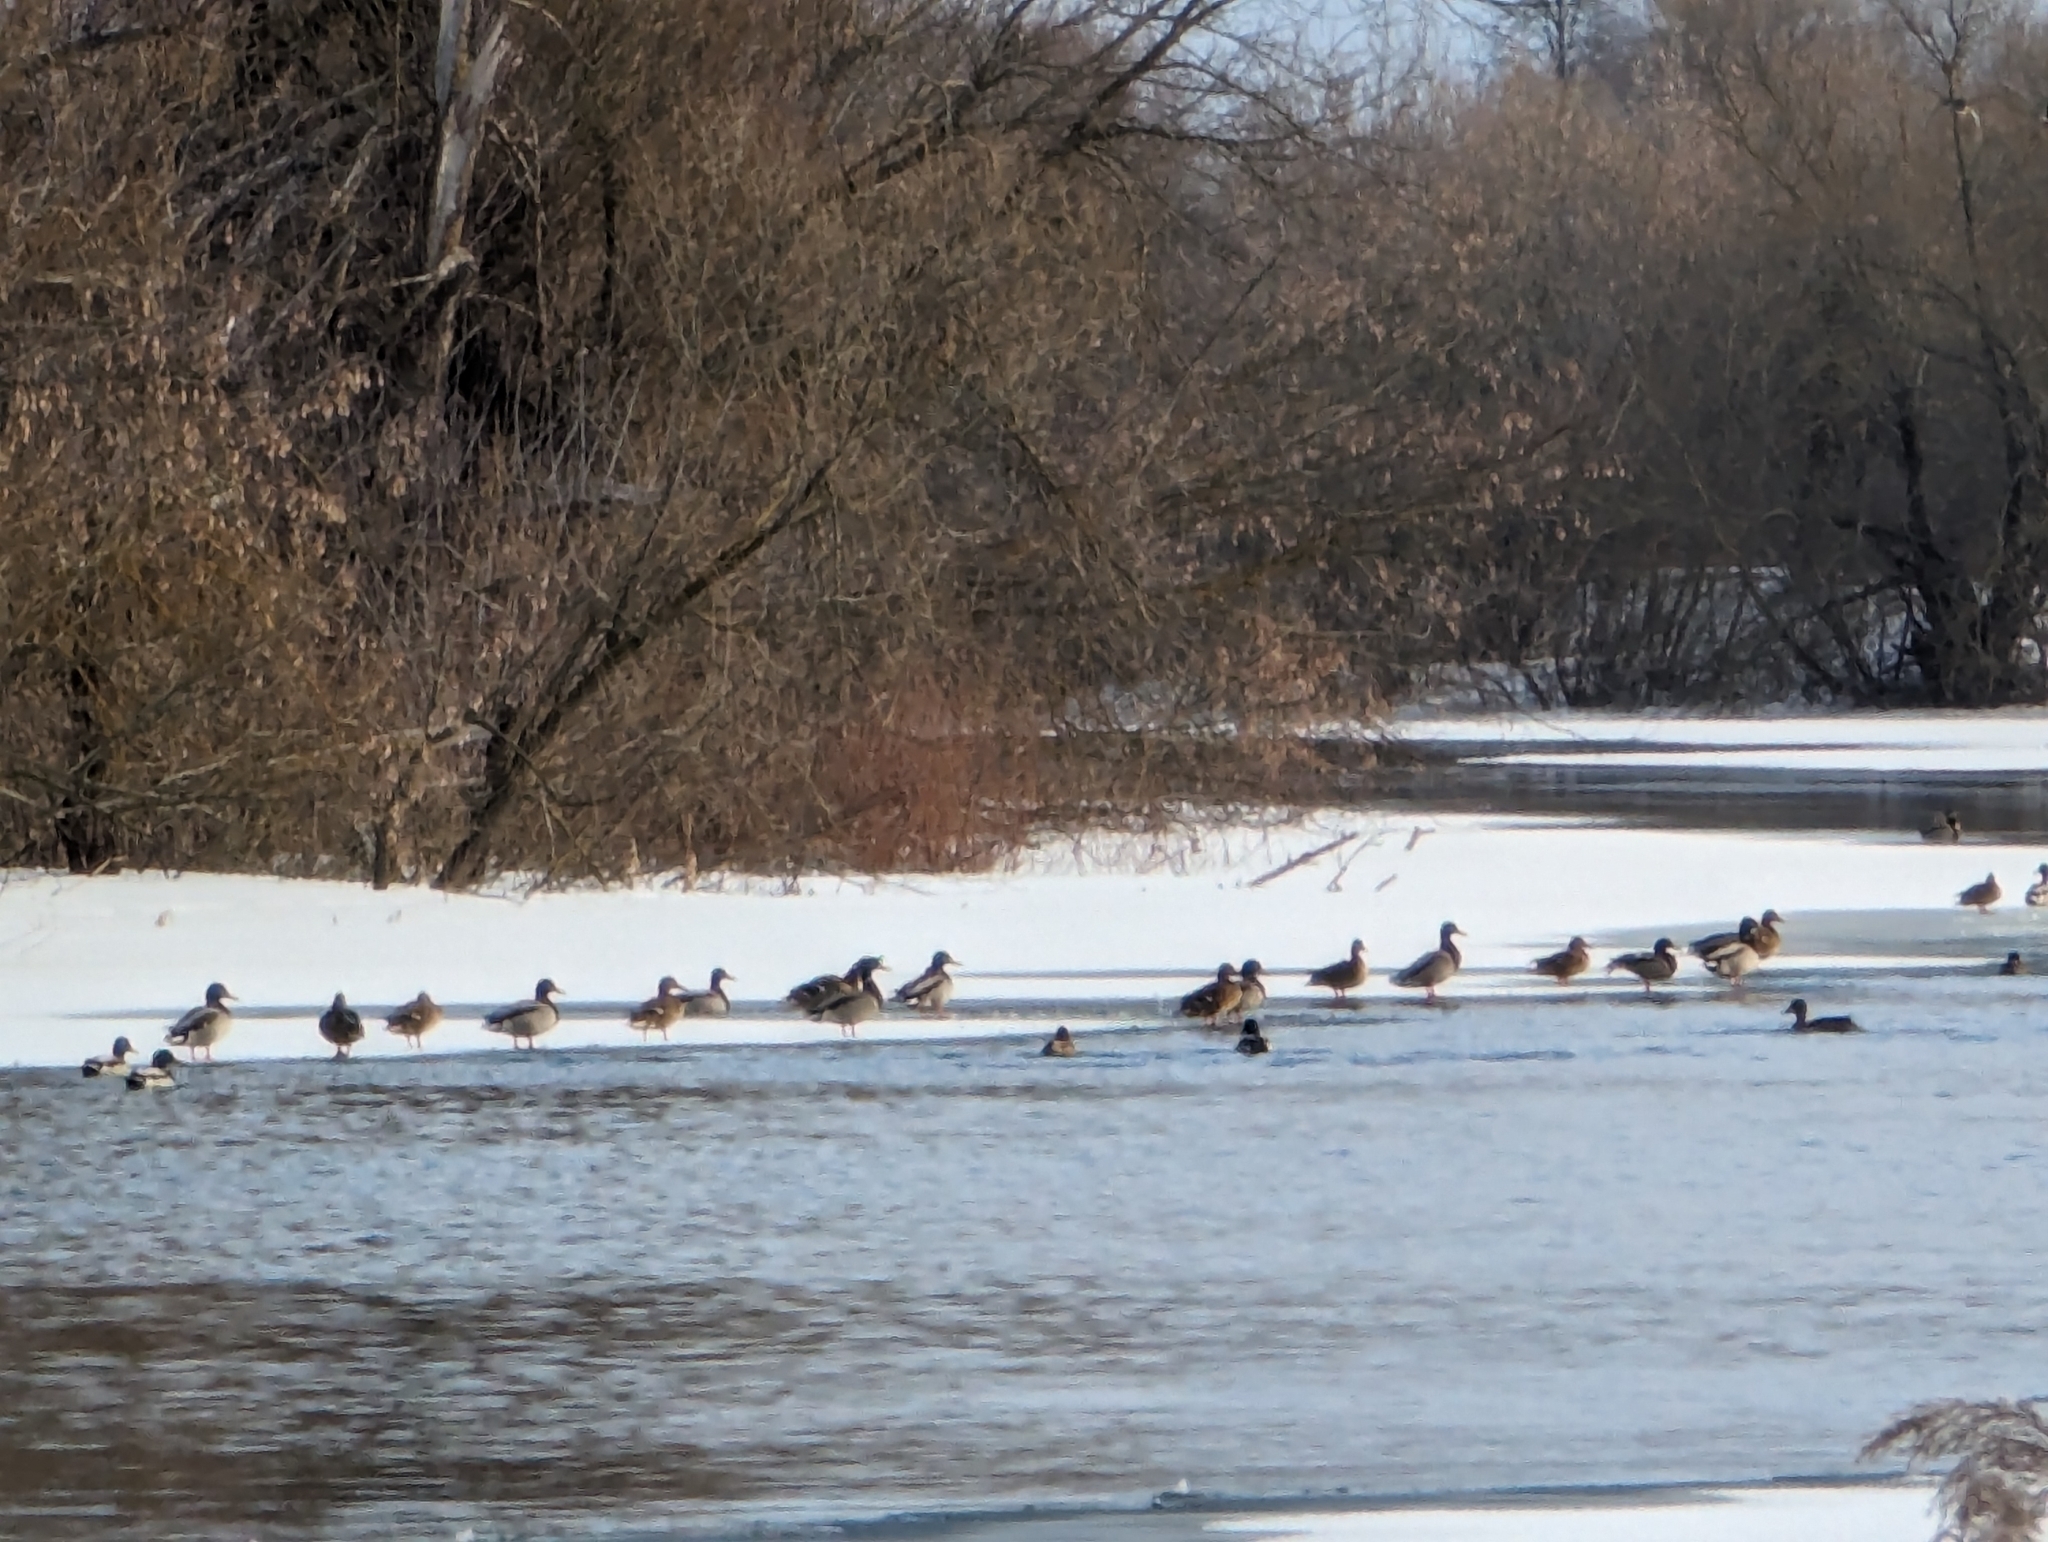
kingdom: Animalia
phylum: Chordata
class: Aves
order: Anseriformes
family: Anatidae
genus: Anas
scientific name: Anas platyrhynchos
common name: Mallard
